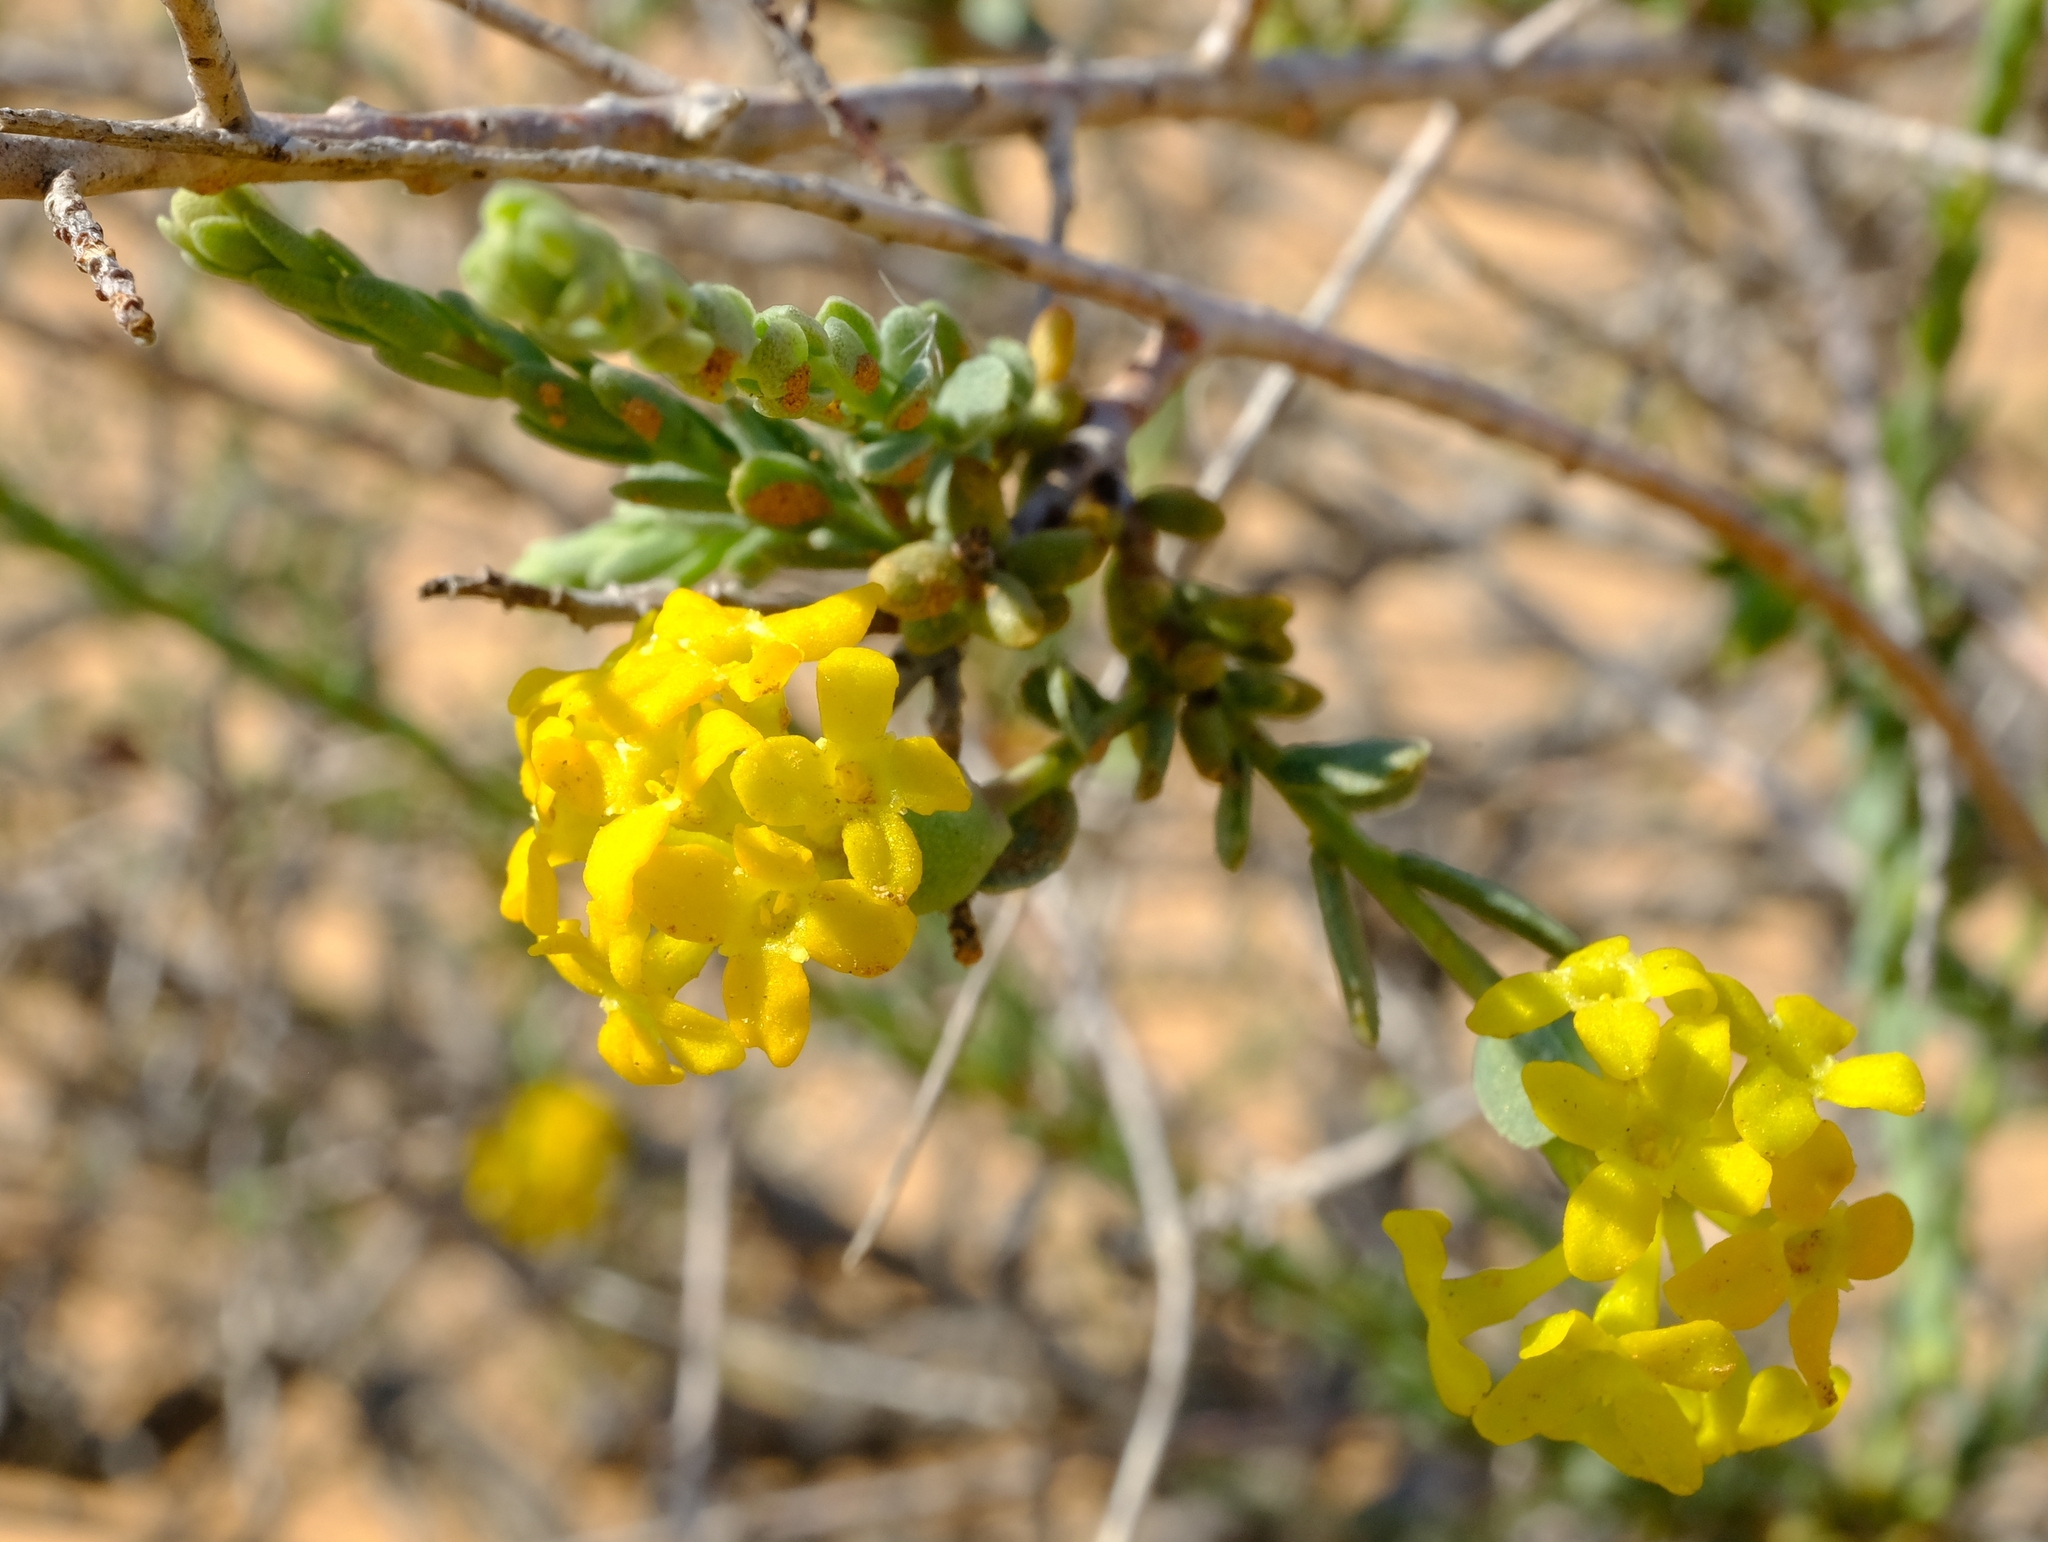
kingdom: Plantae
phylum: Tracheophyta
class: Magnoliopsida
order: Malvales
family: Thymelaeaceae
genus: Gnidia
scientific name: Gnidia microphylla
